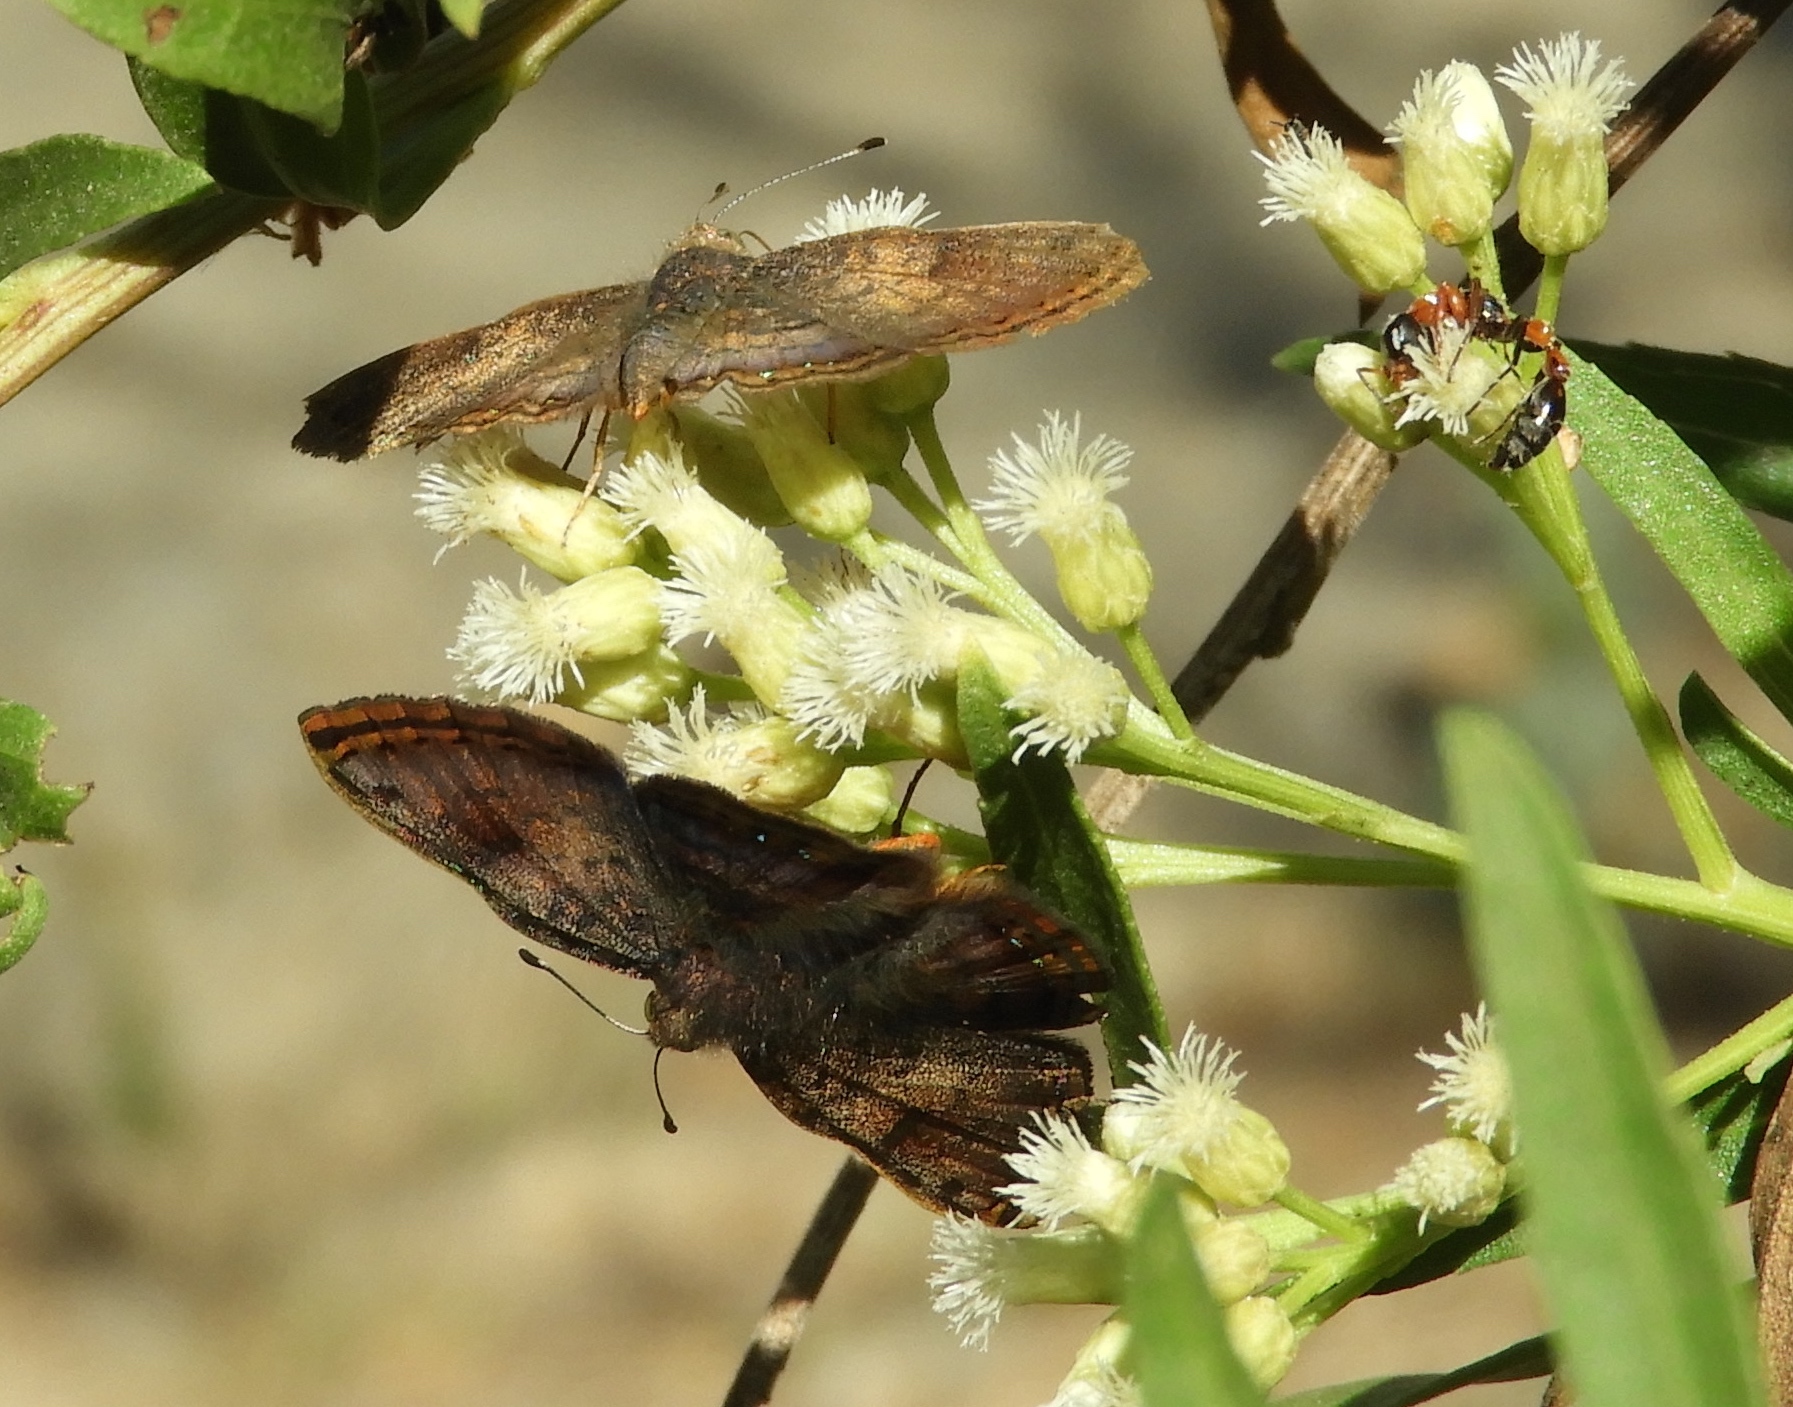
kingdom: Animalia
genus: Caria
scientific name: Caria ino
